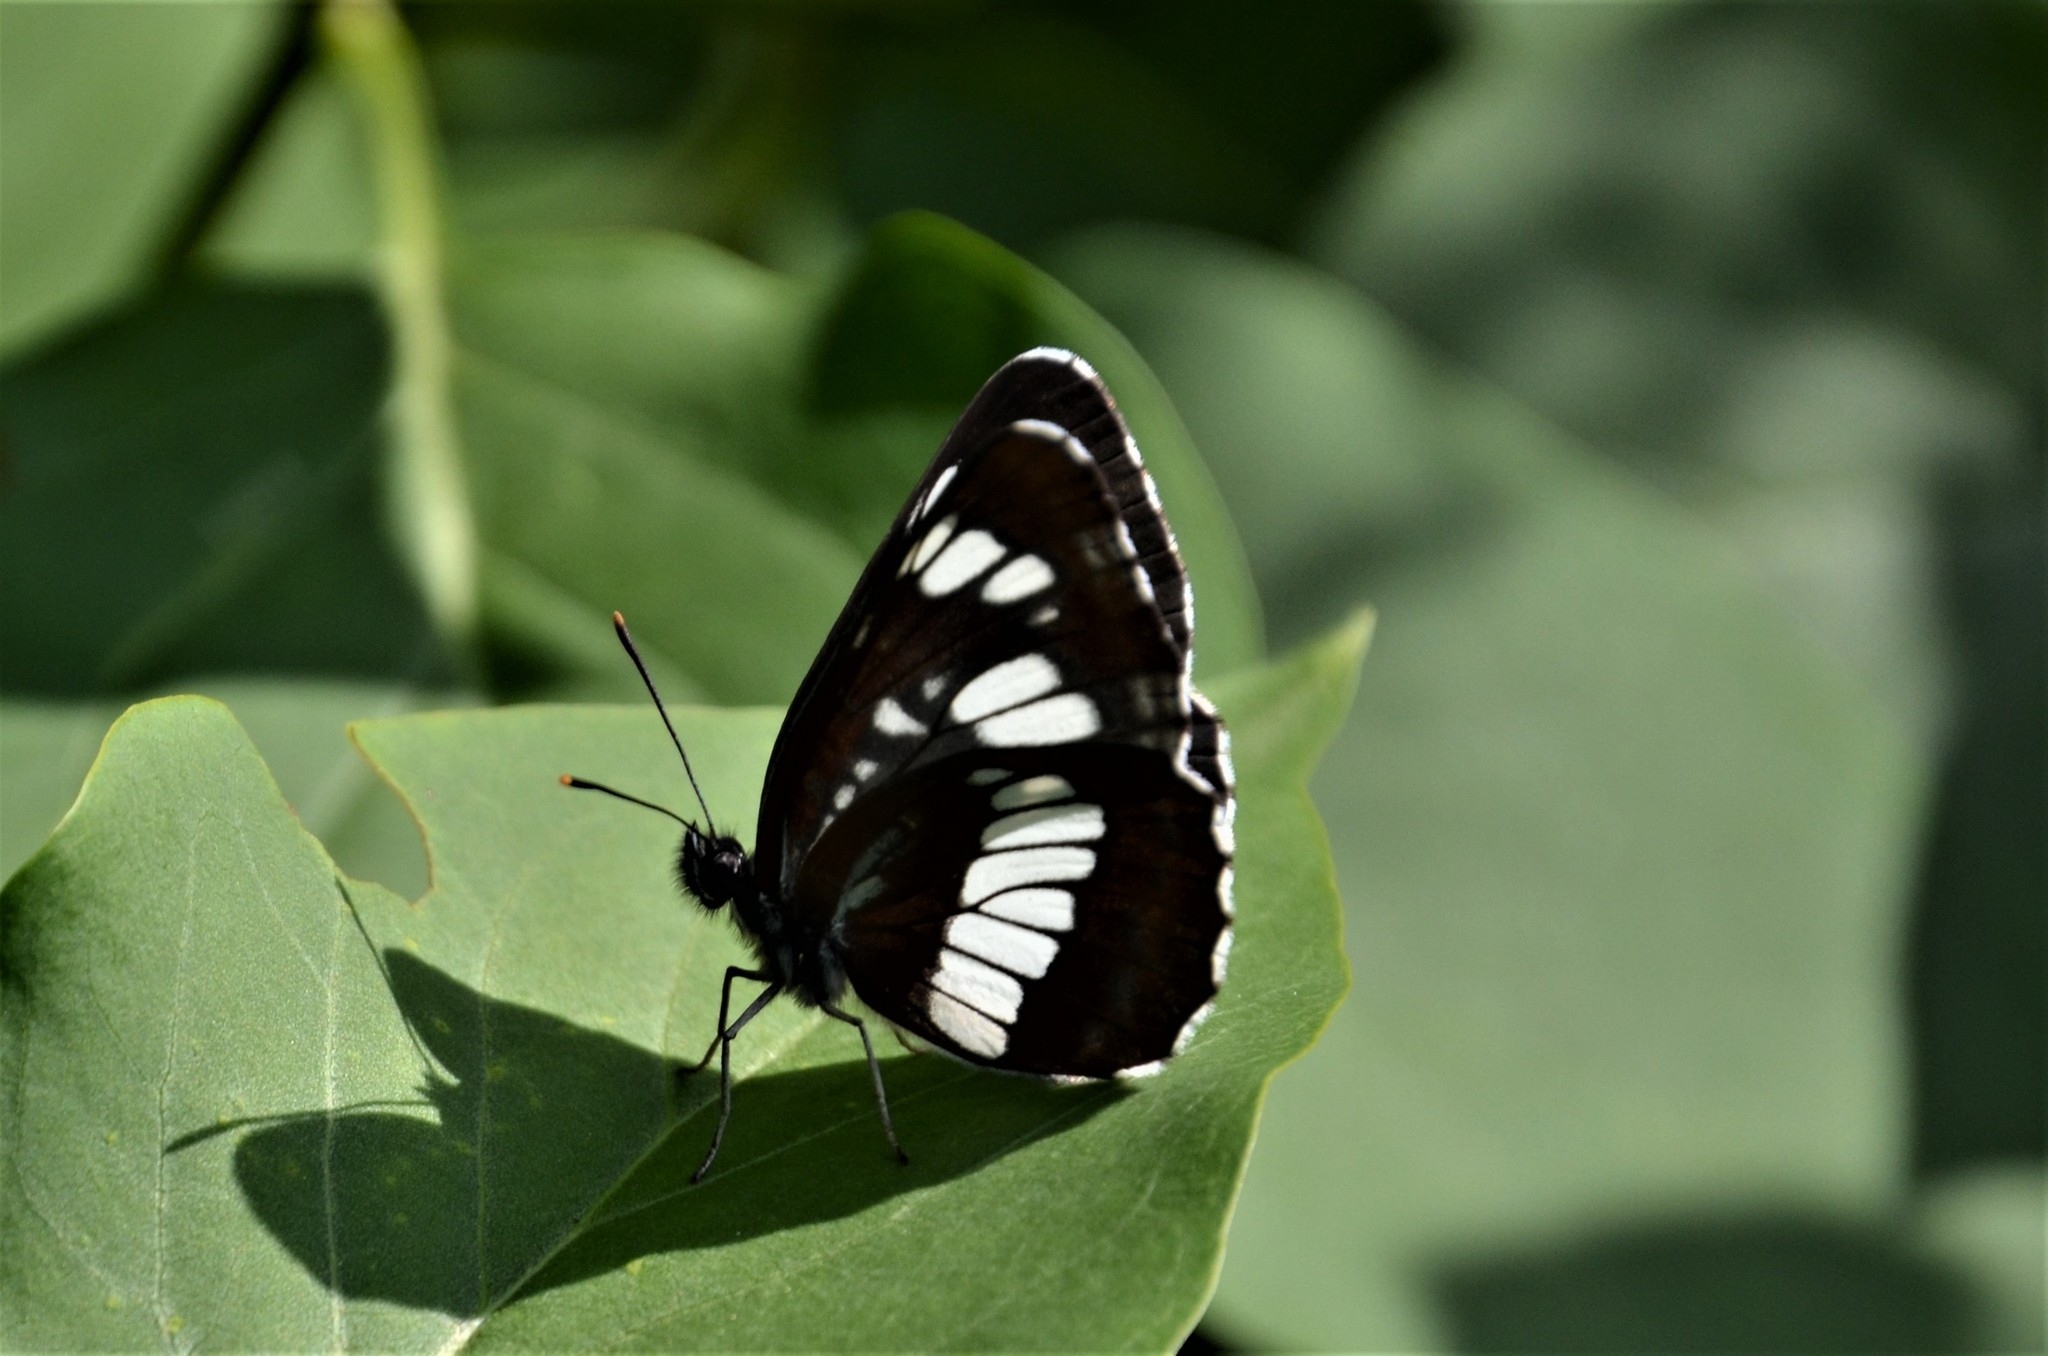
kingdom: Animalia
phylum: Arthropoda
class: Insecta
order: Lepidoptera
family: Nymphalidae
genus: Neptis
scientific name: Neptis rivularis
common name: Hungarian glider
